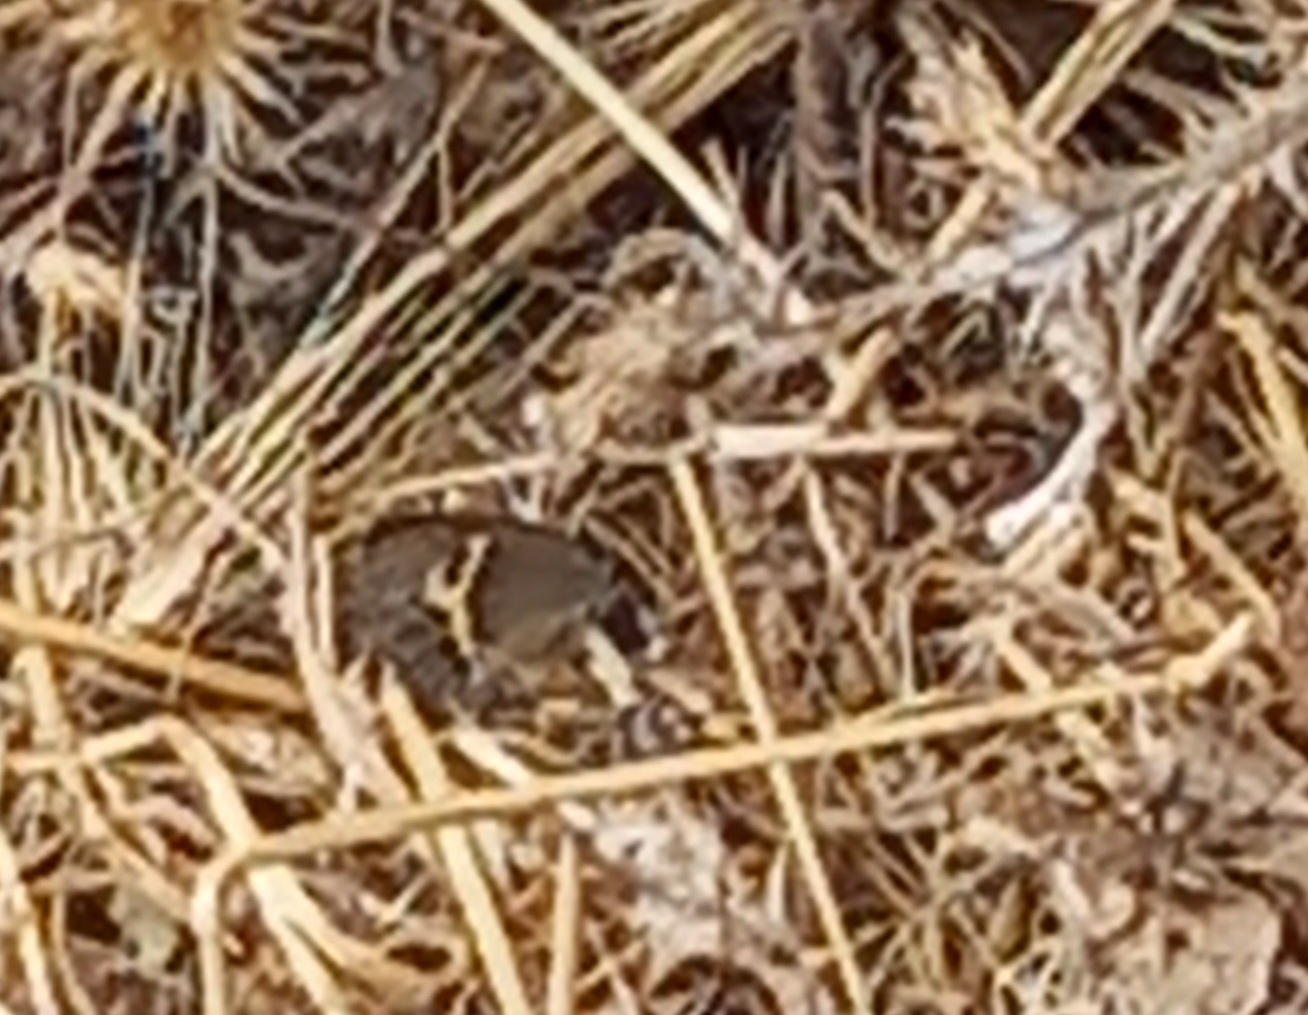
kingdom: Animalia
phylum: Arthropoda
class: Insecta
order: Lepidoptera
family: Nymphalidae
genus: Pyronia
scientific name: Pyronia bathseba
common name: Spanish gatekeeper
